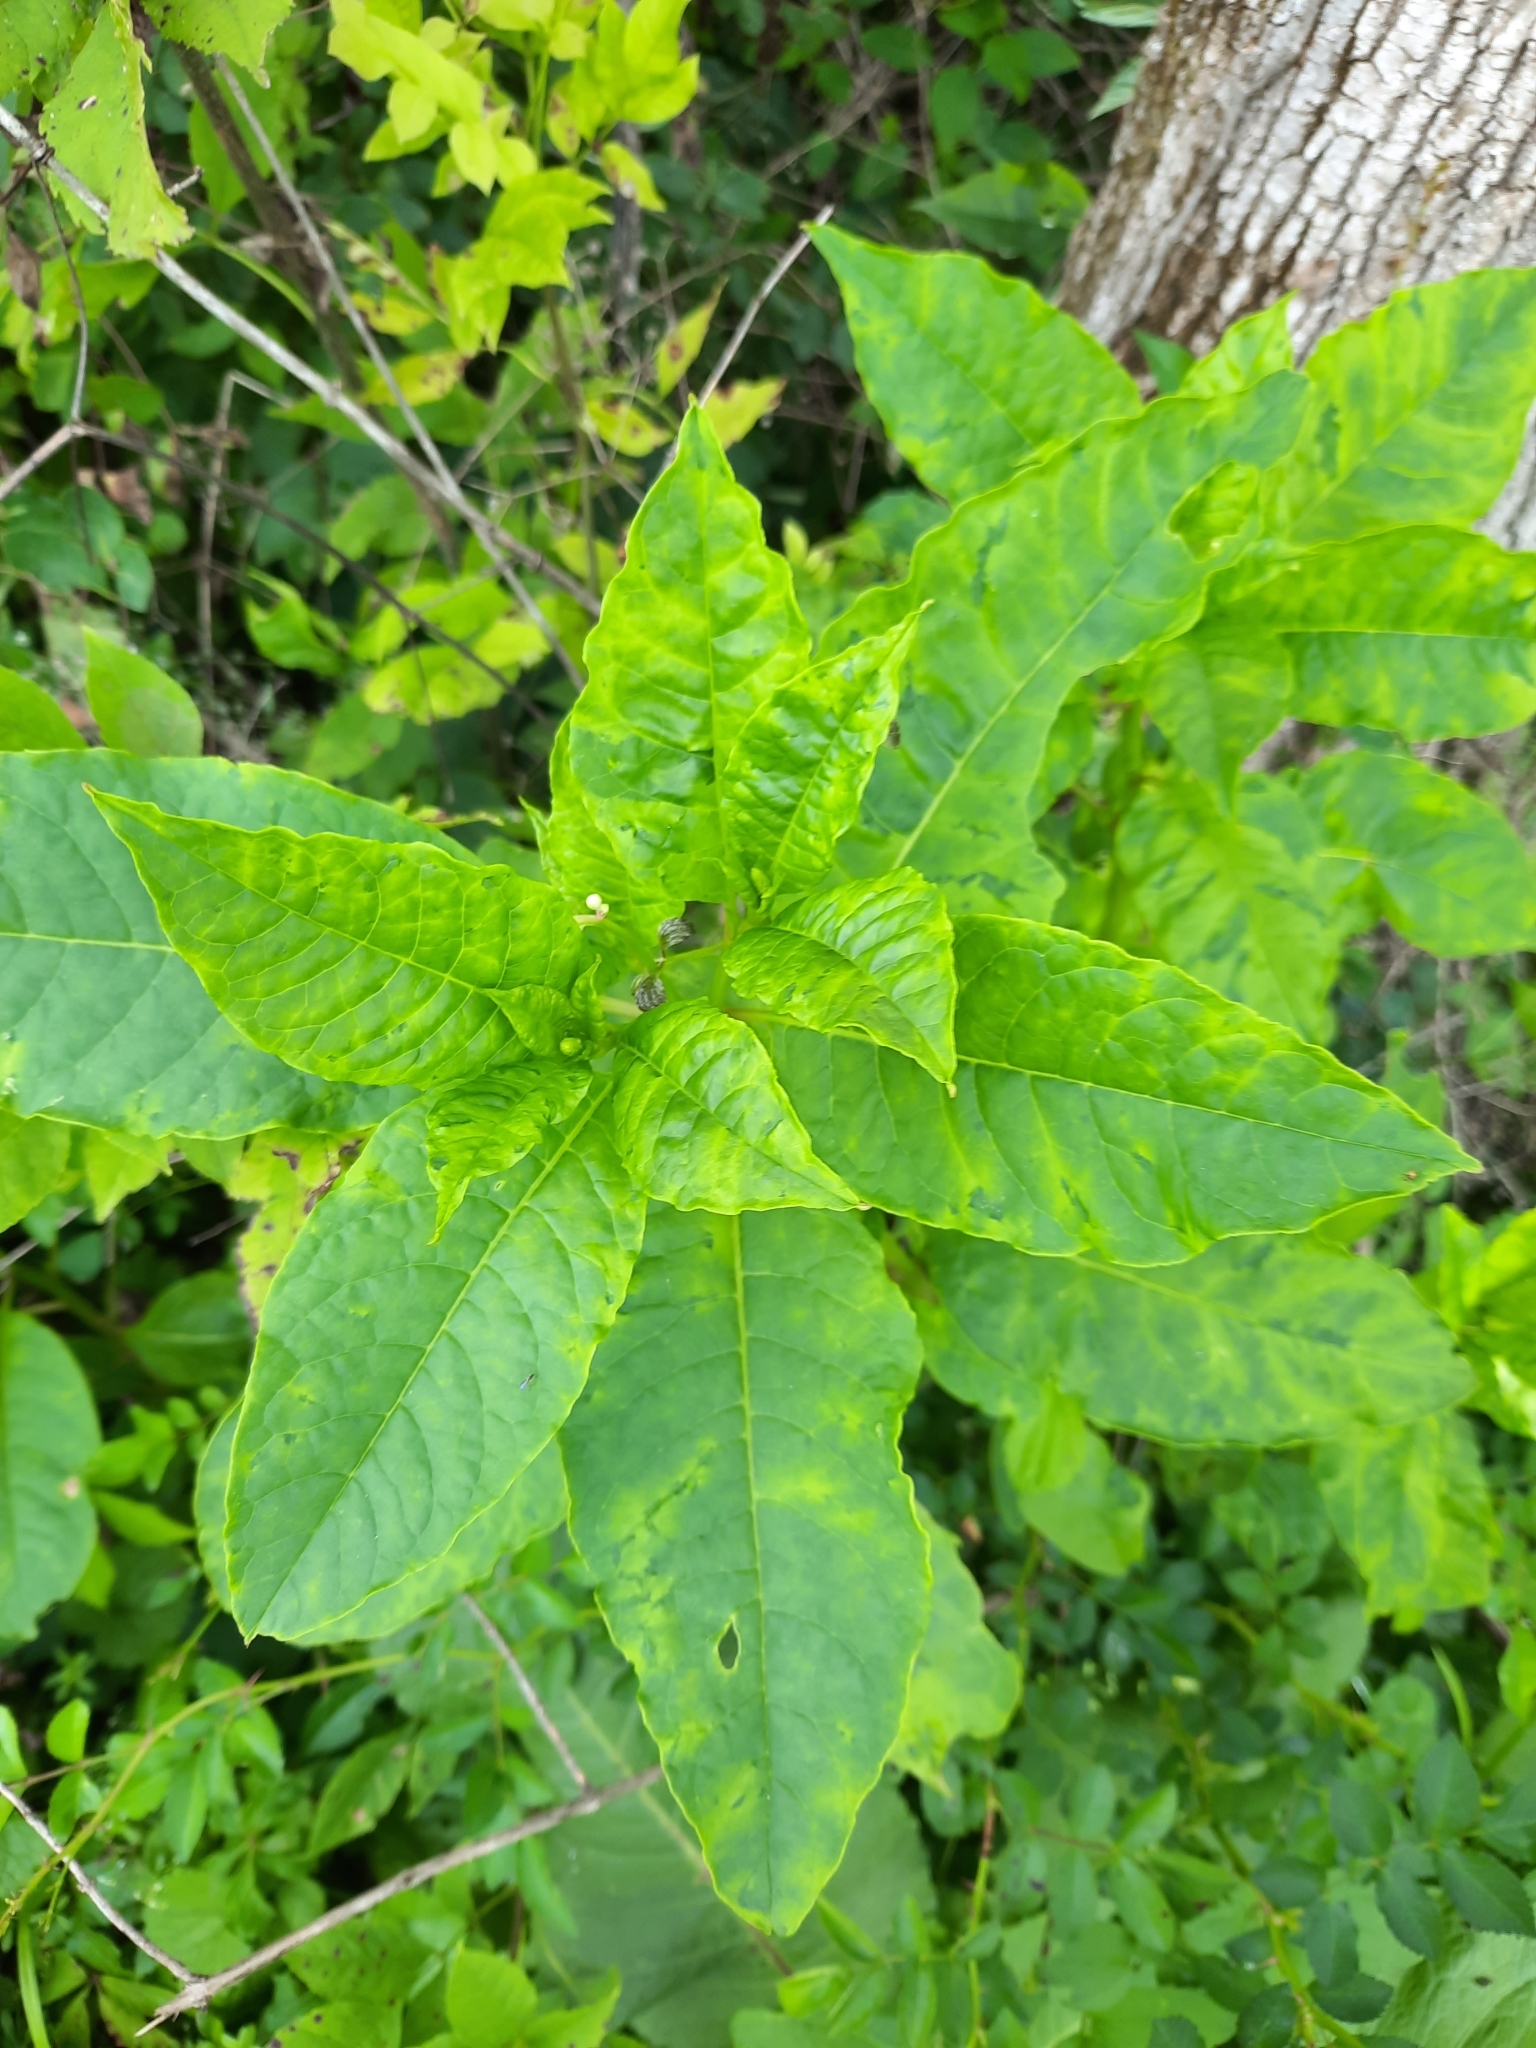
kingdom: Viruses
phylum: Pisuviricota
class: Stelpaviricetes
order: Patatavirales
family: Potyviridae
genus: Potyvirus
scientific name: Potyvirus Pokeweed mosaic virus
